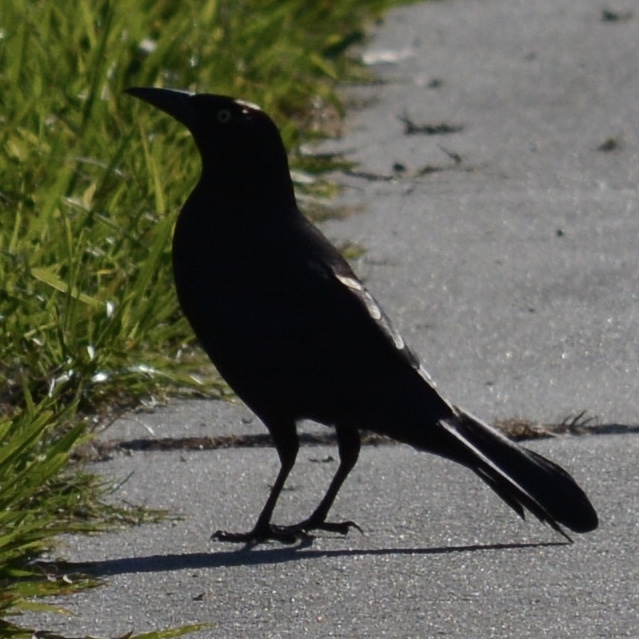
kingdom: Animalia
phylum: Chordata
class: Aves
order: Passeriformes
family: Icteridae
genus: Quiscalus
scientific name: Quiscalus quiscula
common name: Common grackle
